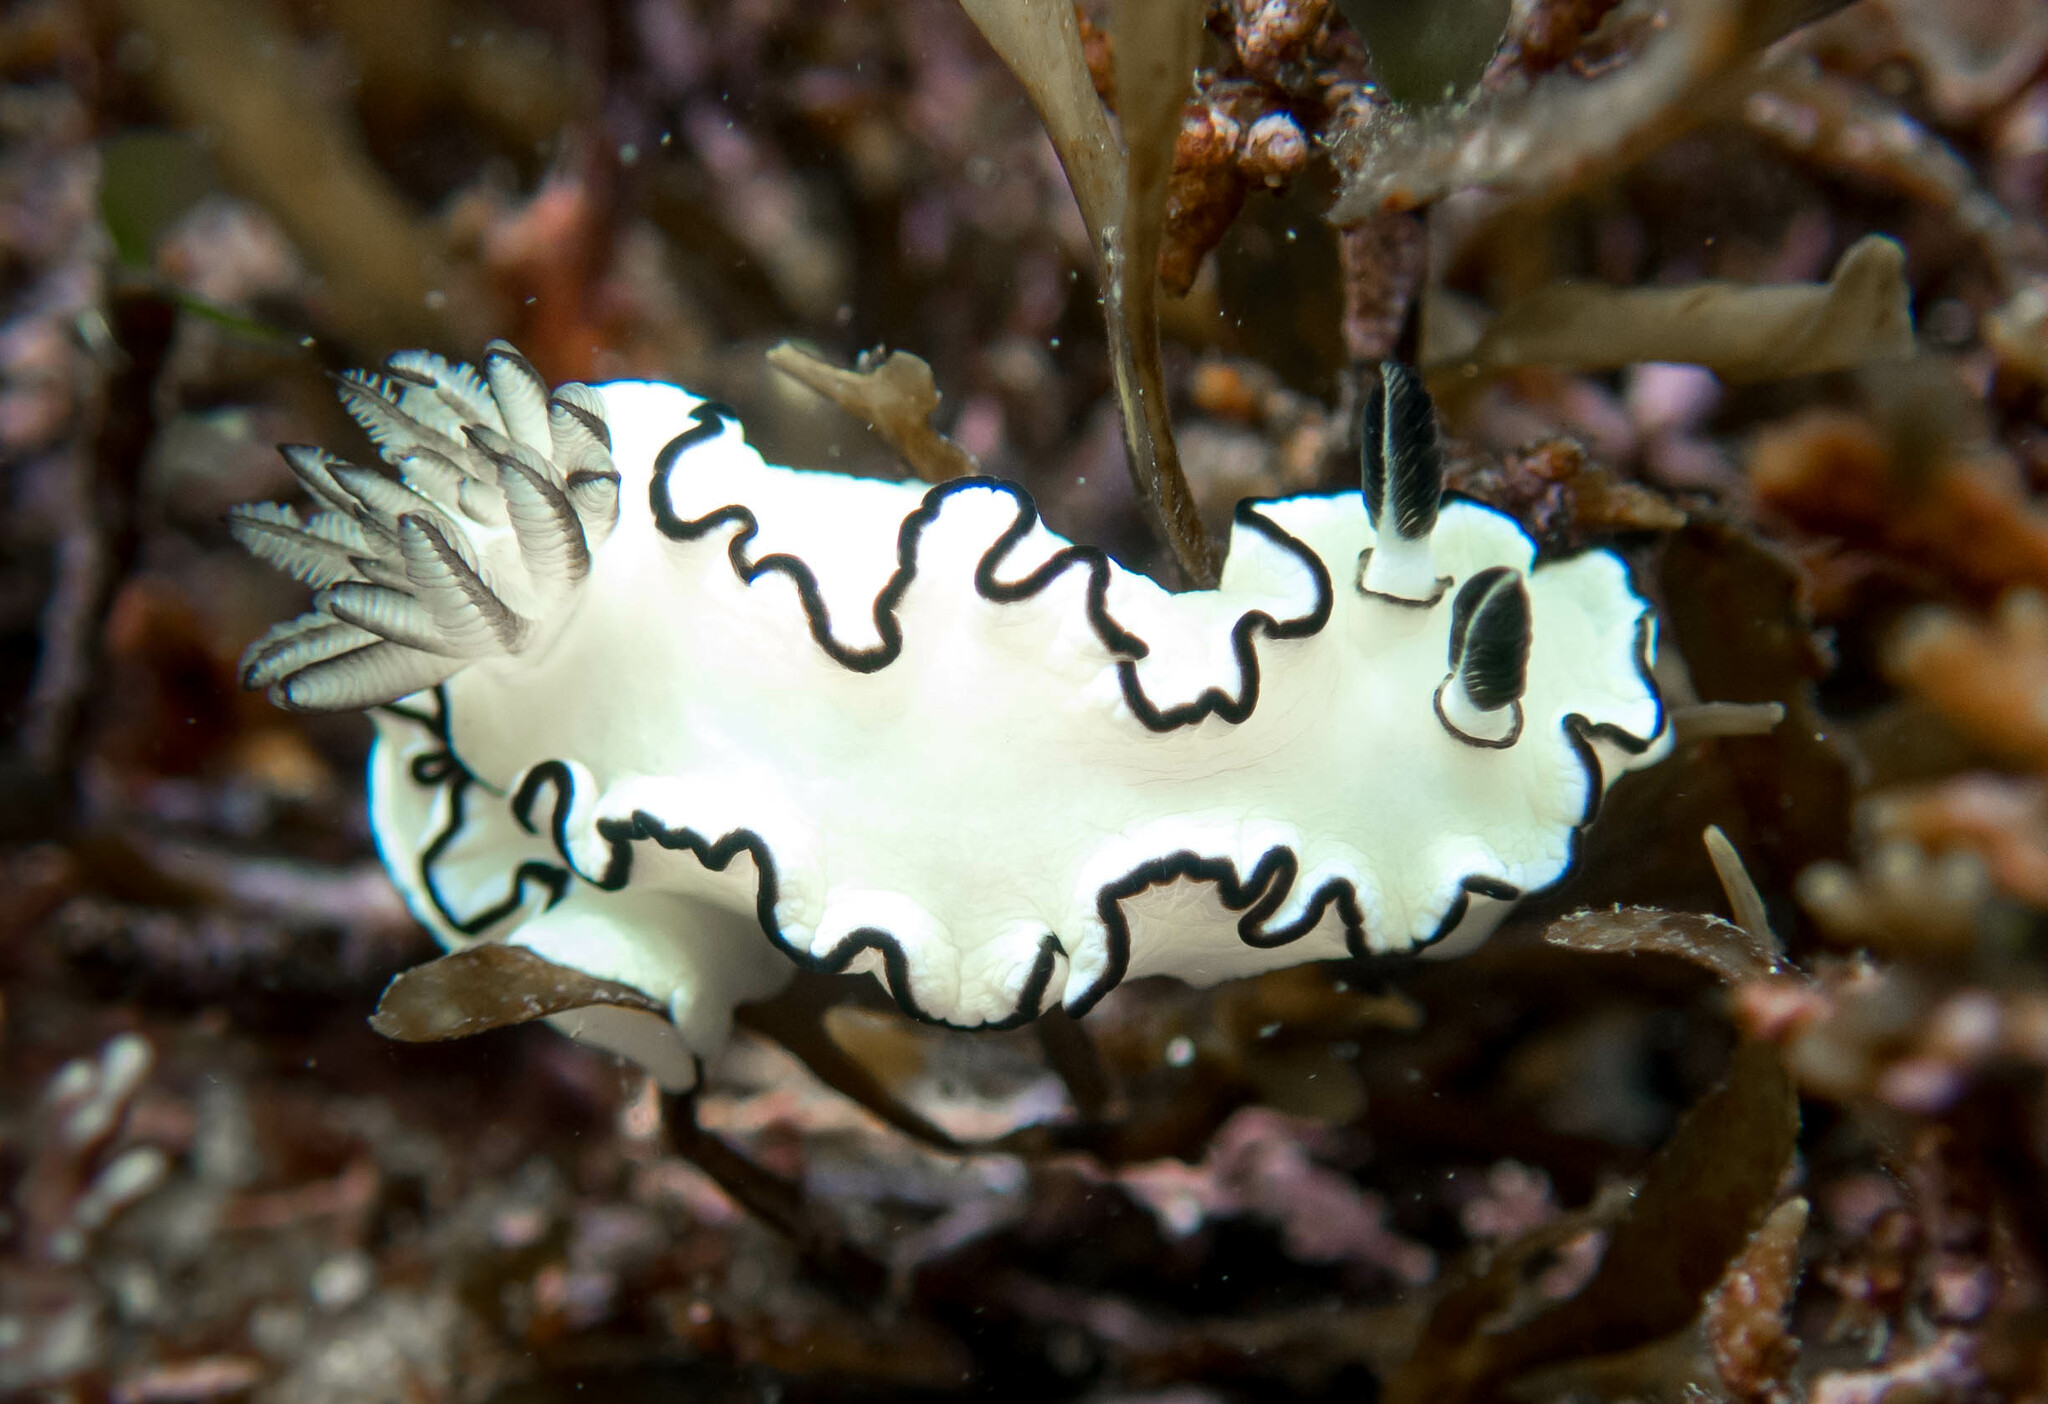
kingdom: Animalia
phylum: Mollusca
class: Gastropoda
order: Nudibranchia
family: Chromodorididae
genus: Doriprismatica
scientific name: Doriprismatica atromarginata
